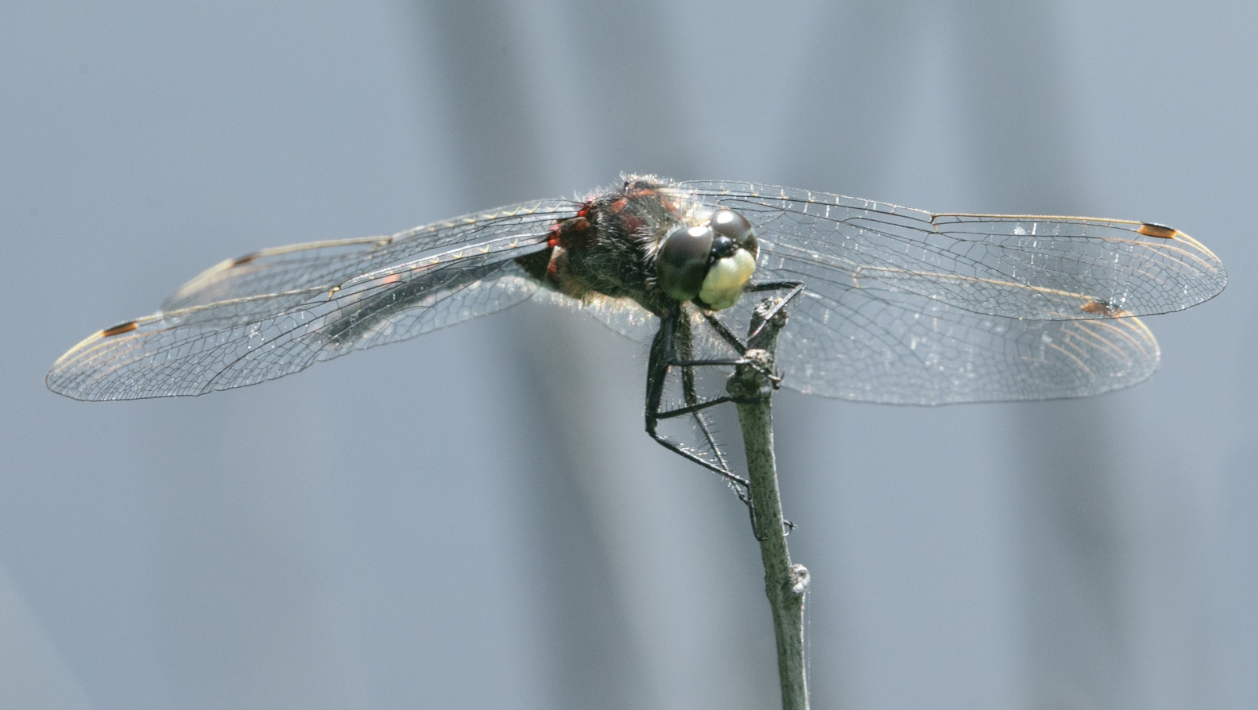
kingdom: Animalia
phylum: Arthropoda
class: Insecta
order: Odonata
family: Libellulidae
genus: Leucorrhinia
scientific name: Leucorrhinia dubia
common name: White-faced darter
